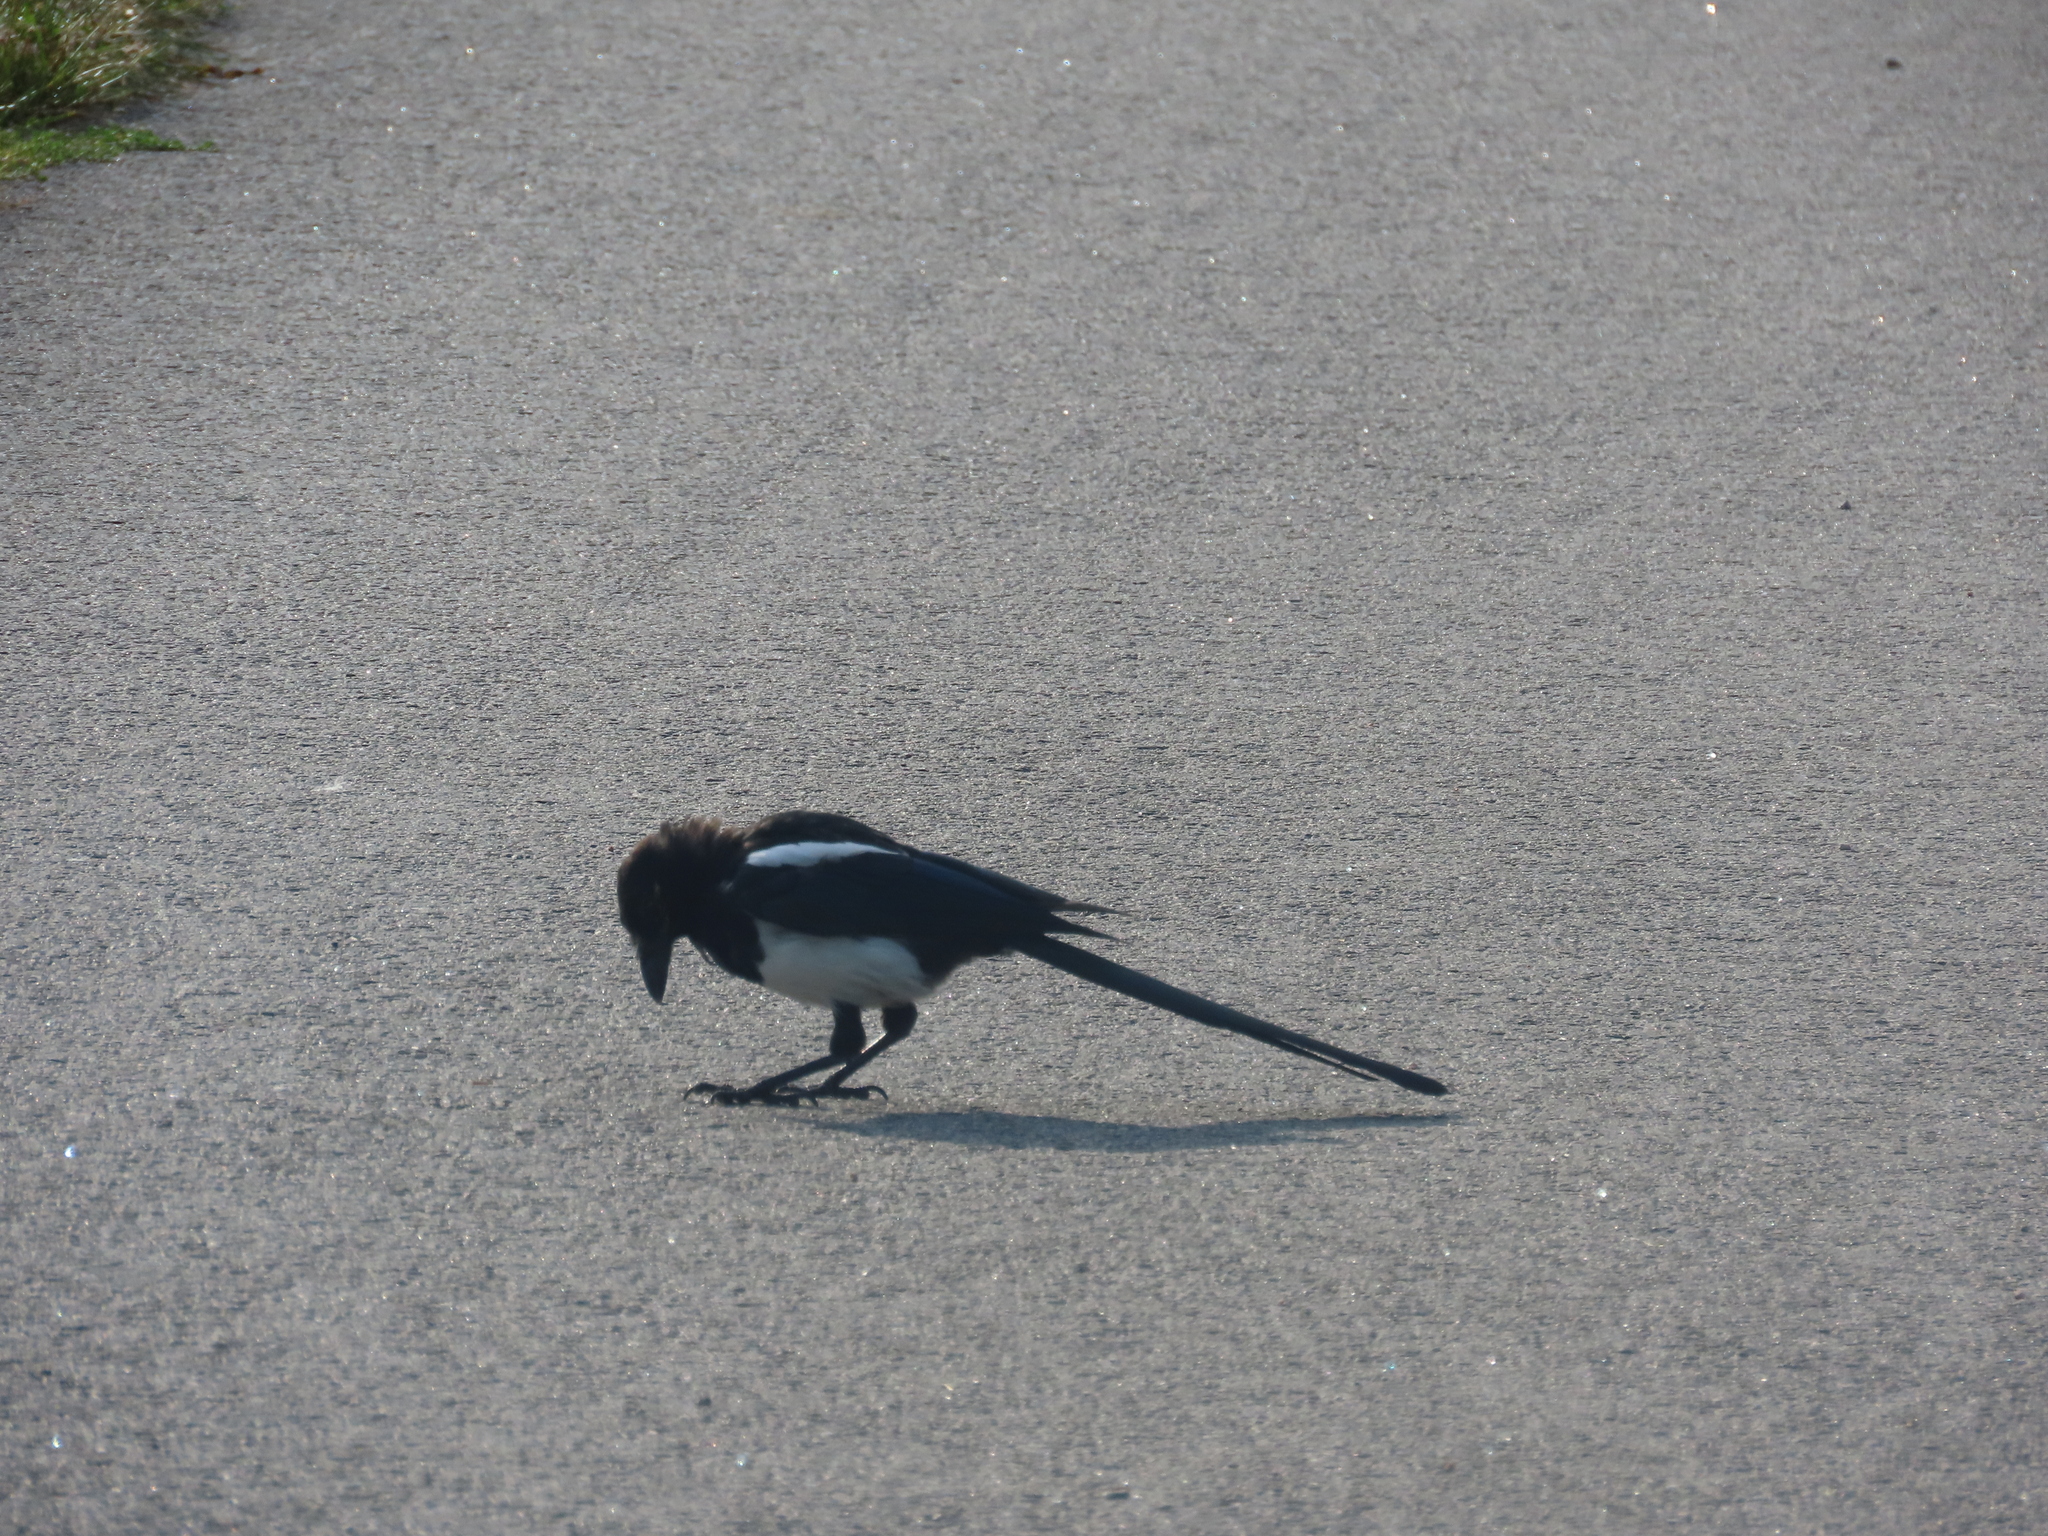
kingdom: Animalia
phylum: Chordata
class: Aves
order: Passeriformes
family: Corvidae
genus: Pica
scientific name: Pica pica
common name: Eurasian magpie
